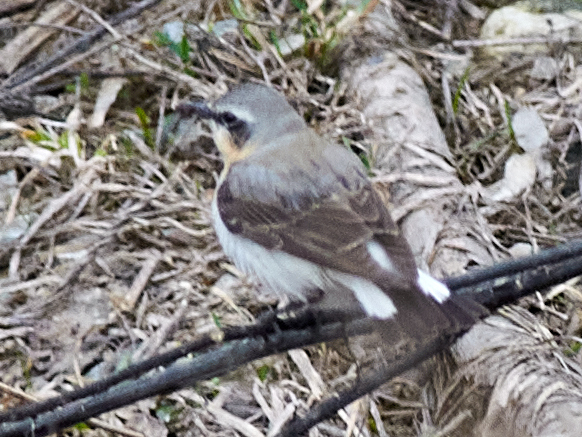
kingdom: Animalia
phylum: Chordata
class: Aves
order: Passeriformes
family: Muscicapidae
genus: Oenanthe
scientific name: Oenanthe oenanthe
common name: Northern wheatear
